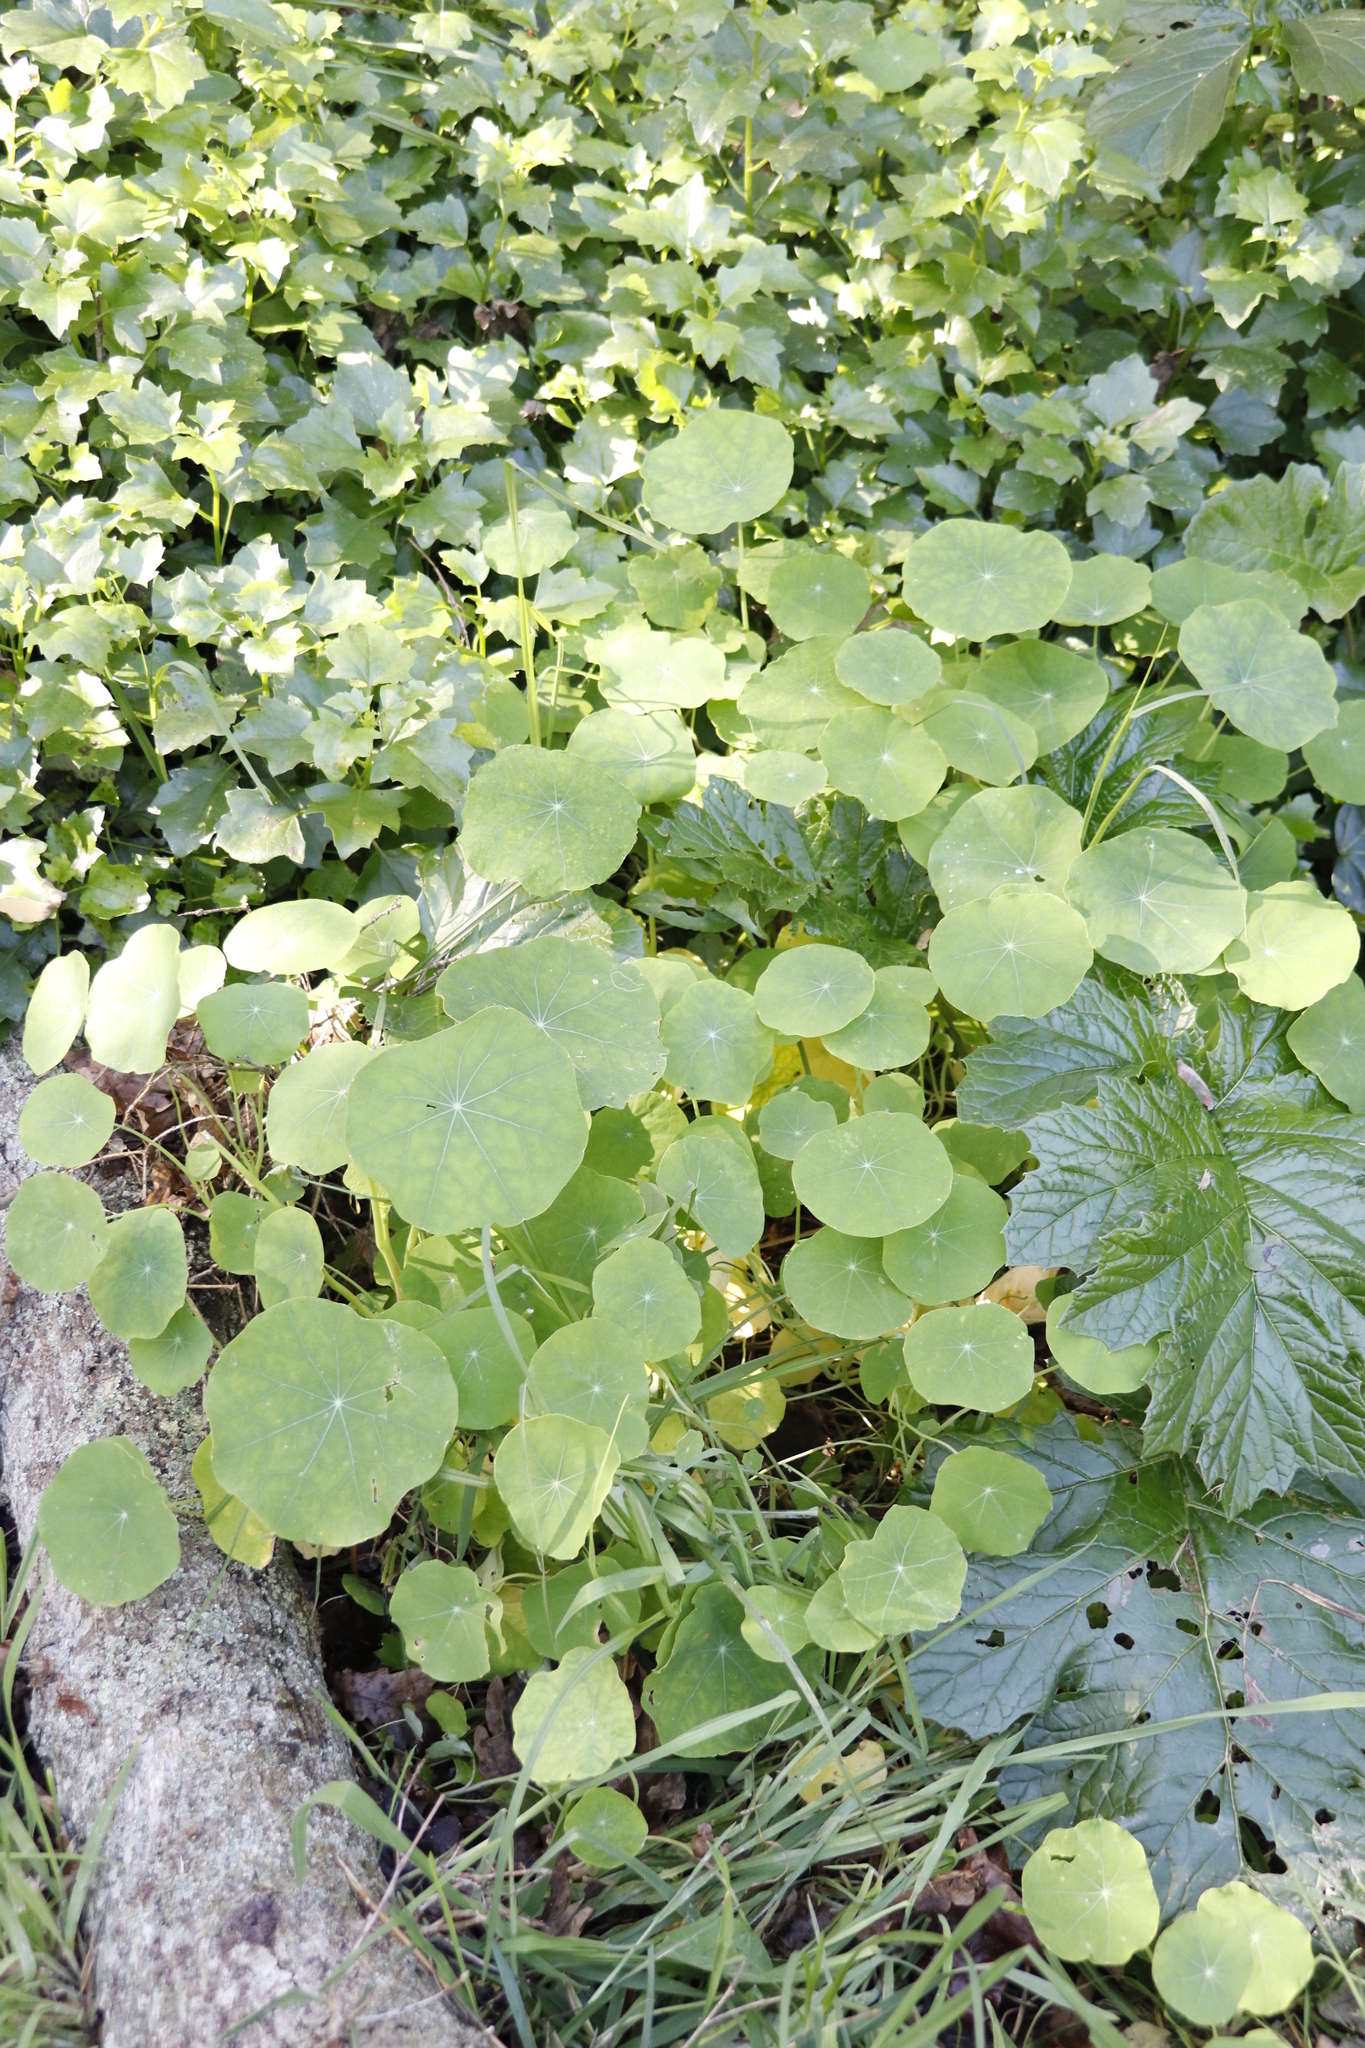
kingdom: Plantae
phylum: Tracheophyta
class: Magnoliopsida
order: Brassicales
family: Tropaeolaceae
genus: Tropaeolum
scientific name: Tropaeolum majus
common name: Nasturtium
